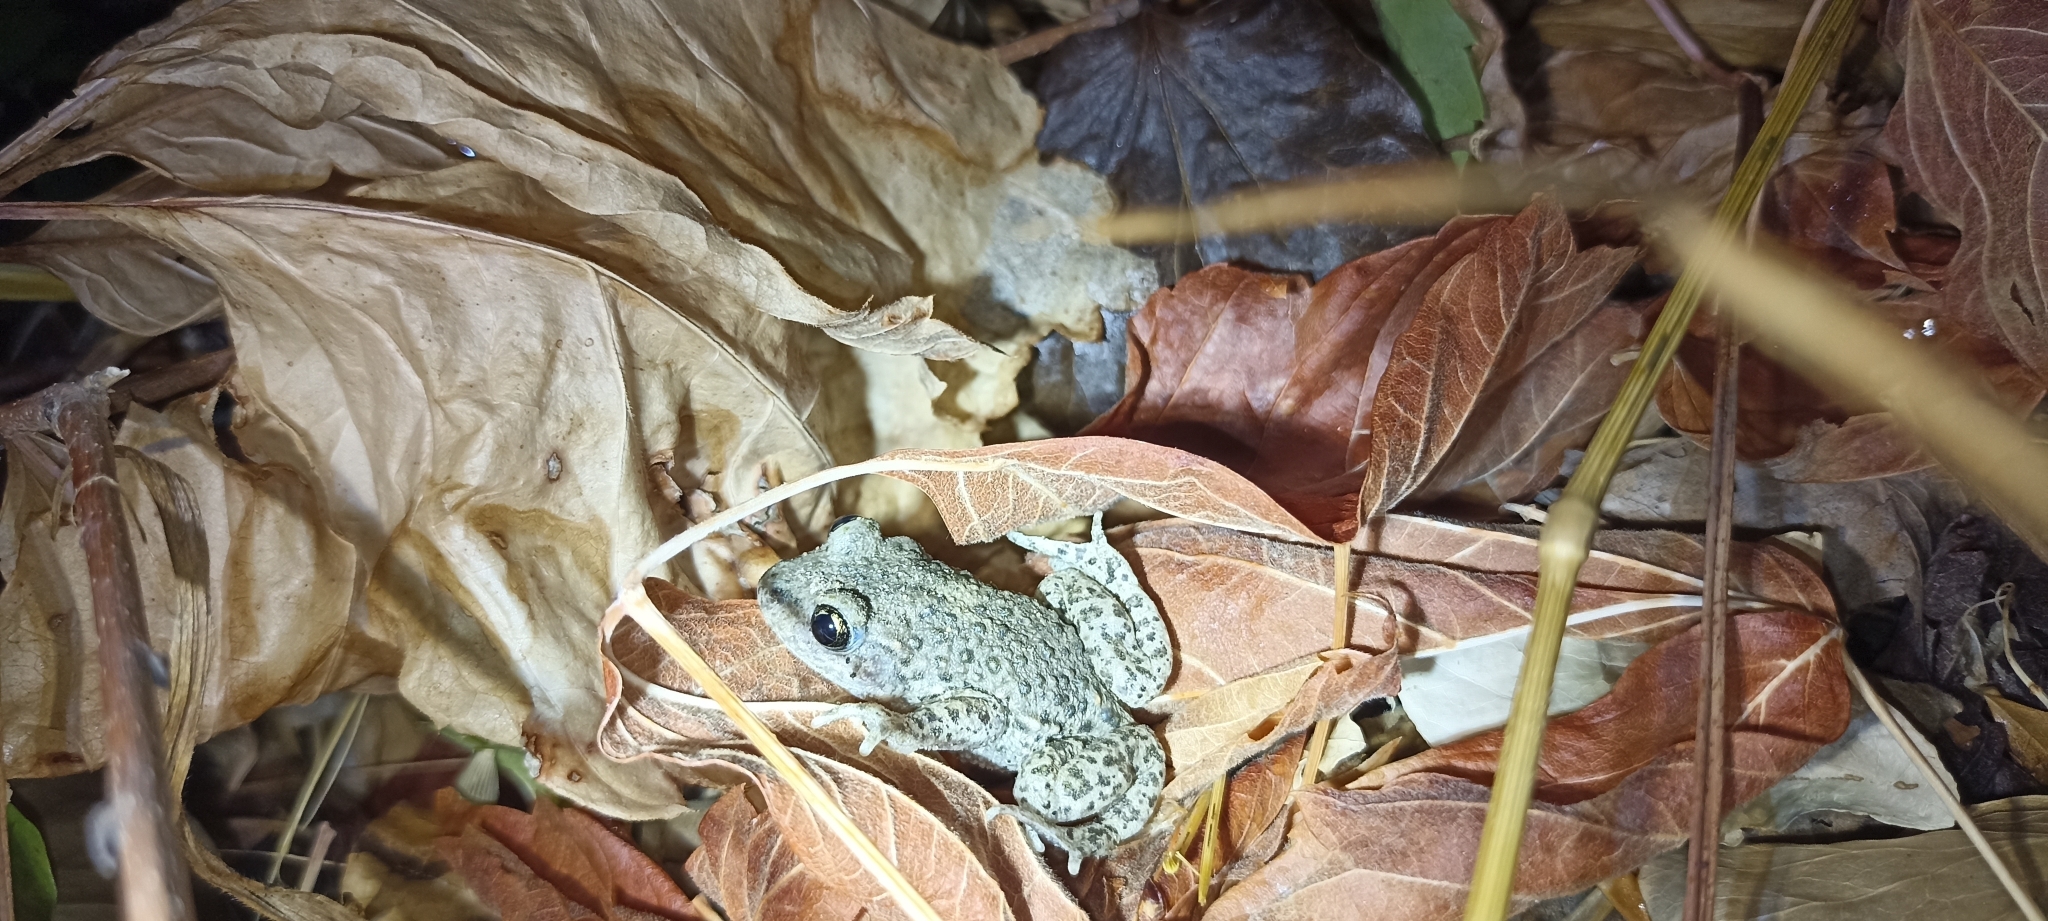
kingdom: Animalia
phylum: Chordata
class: Amphibia
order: Anura
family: Alytidae
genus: Alytes
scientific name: Alytes obstetricans
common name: Midwife toad
